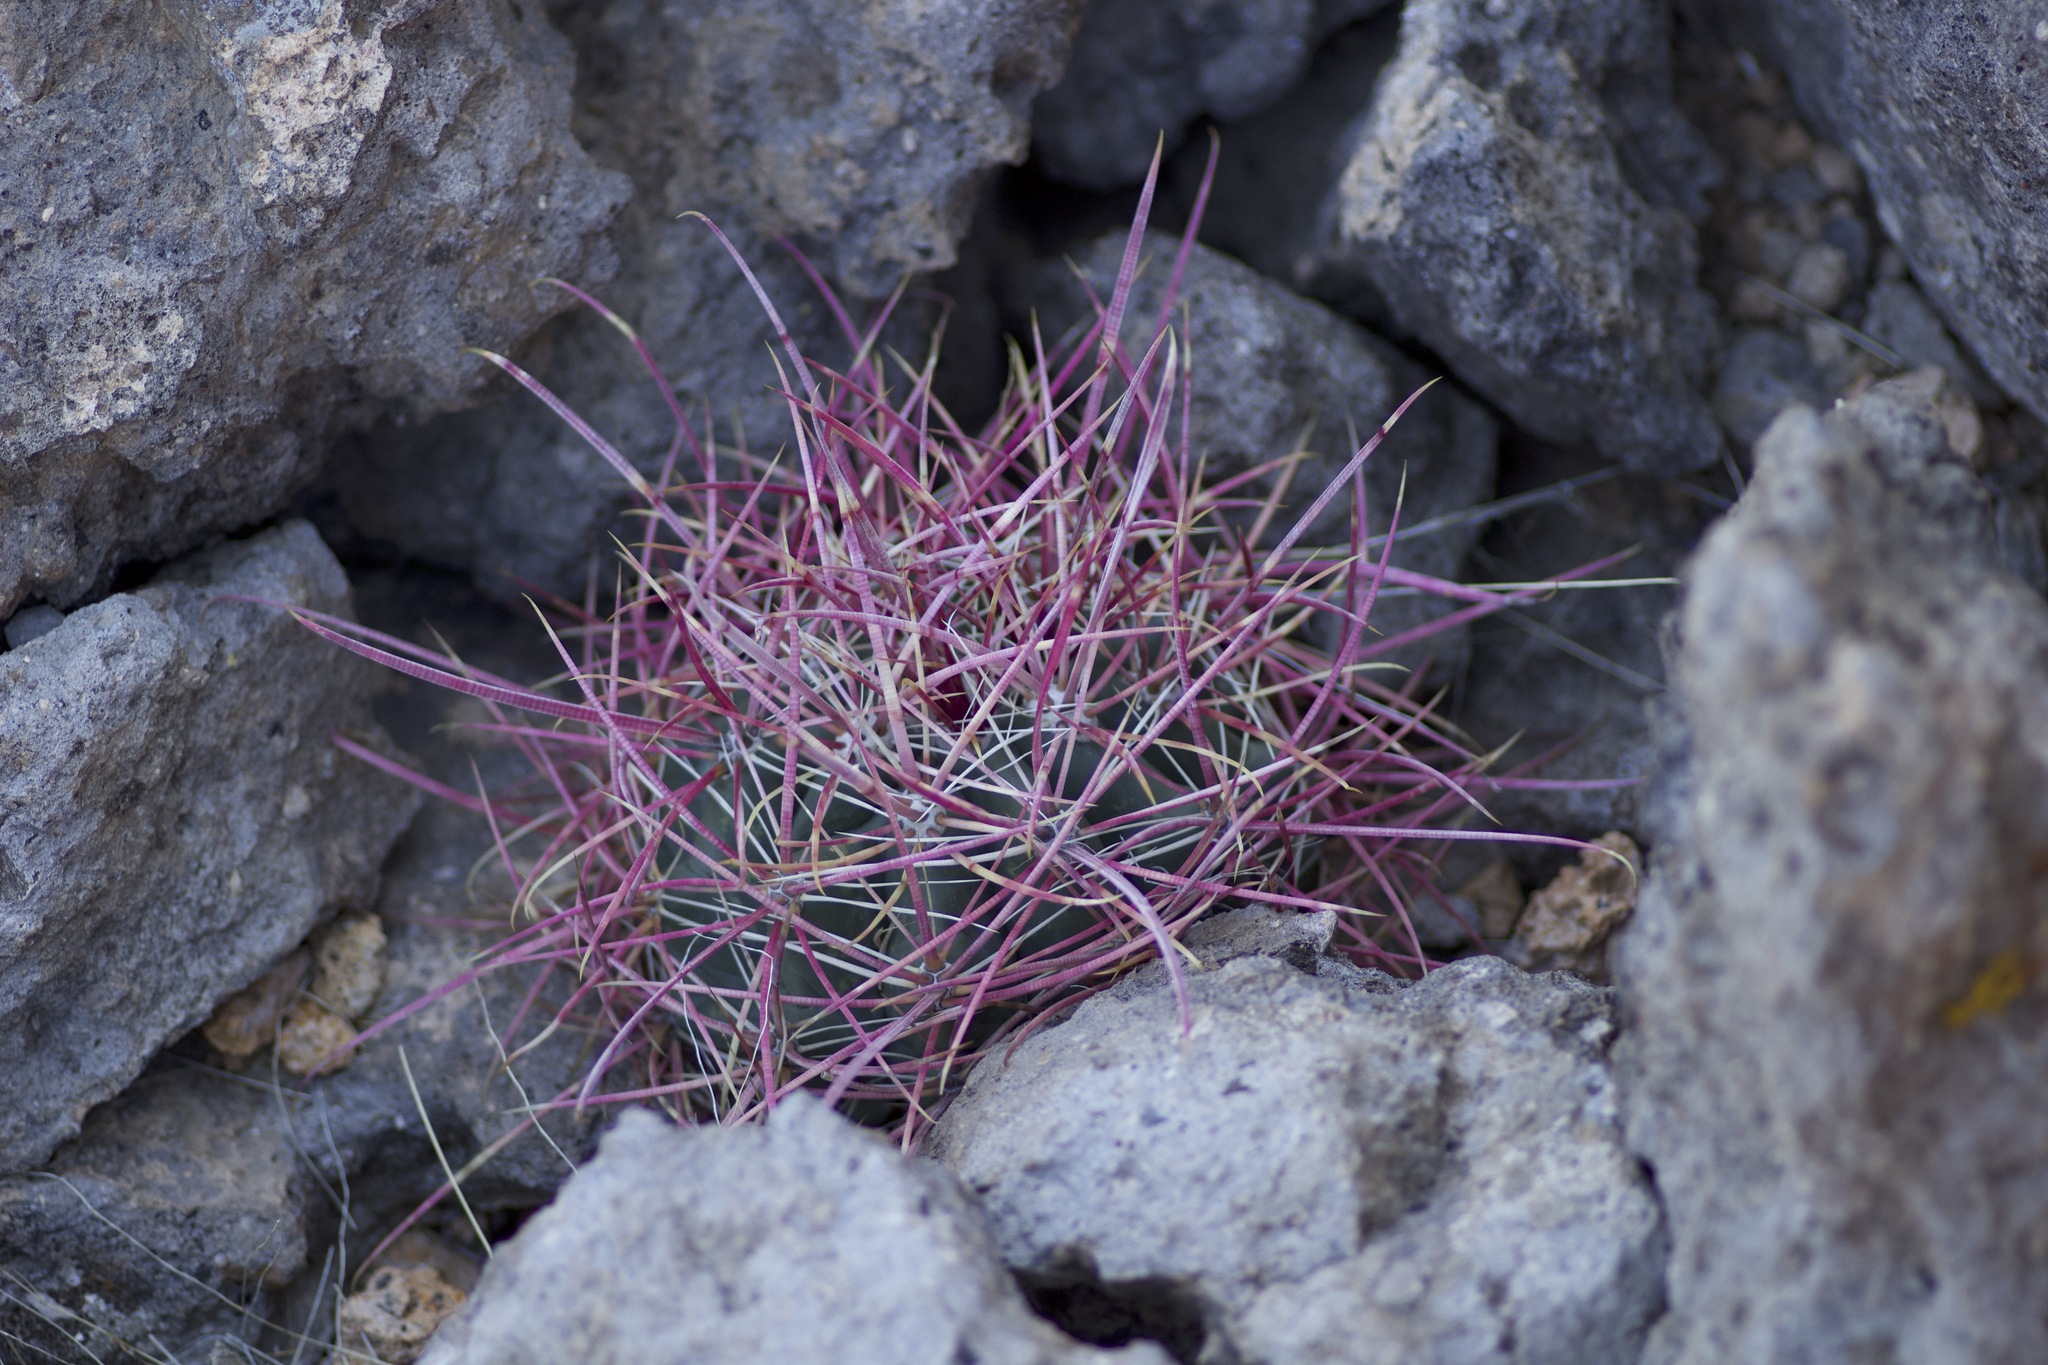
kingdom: Plantae
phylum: Tracheophyta
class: Magnoliopsida
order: Caryophyllales
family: Cactaceae
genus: Ferocactus
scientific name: Ferocactus cylindraceus
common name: California barrel cactus
